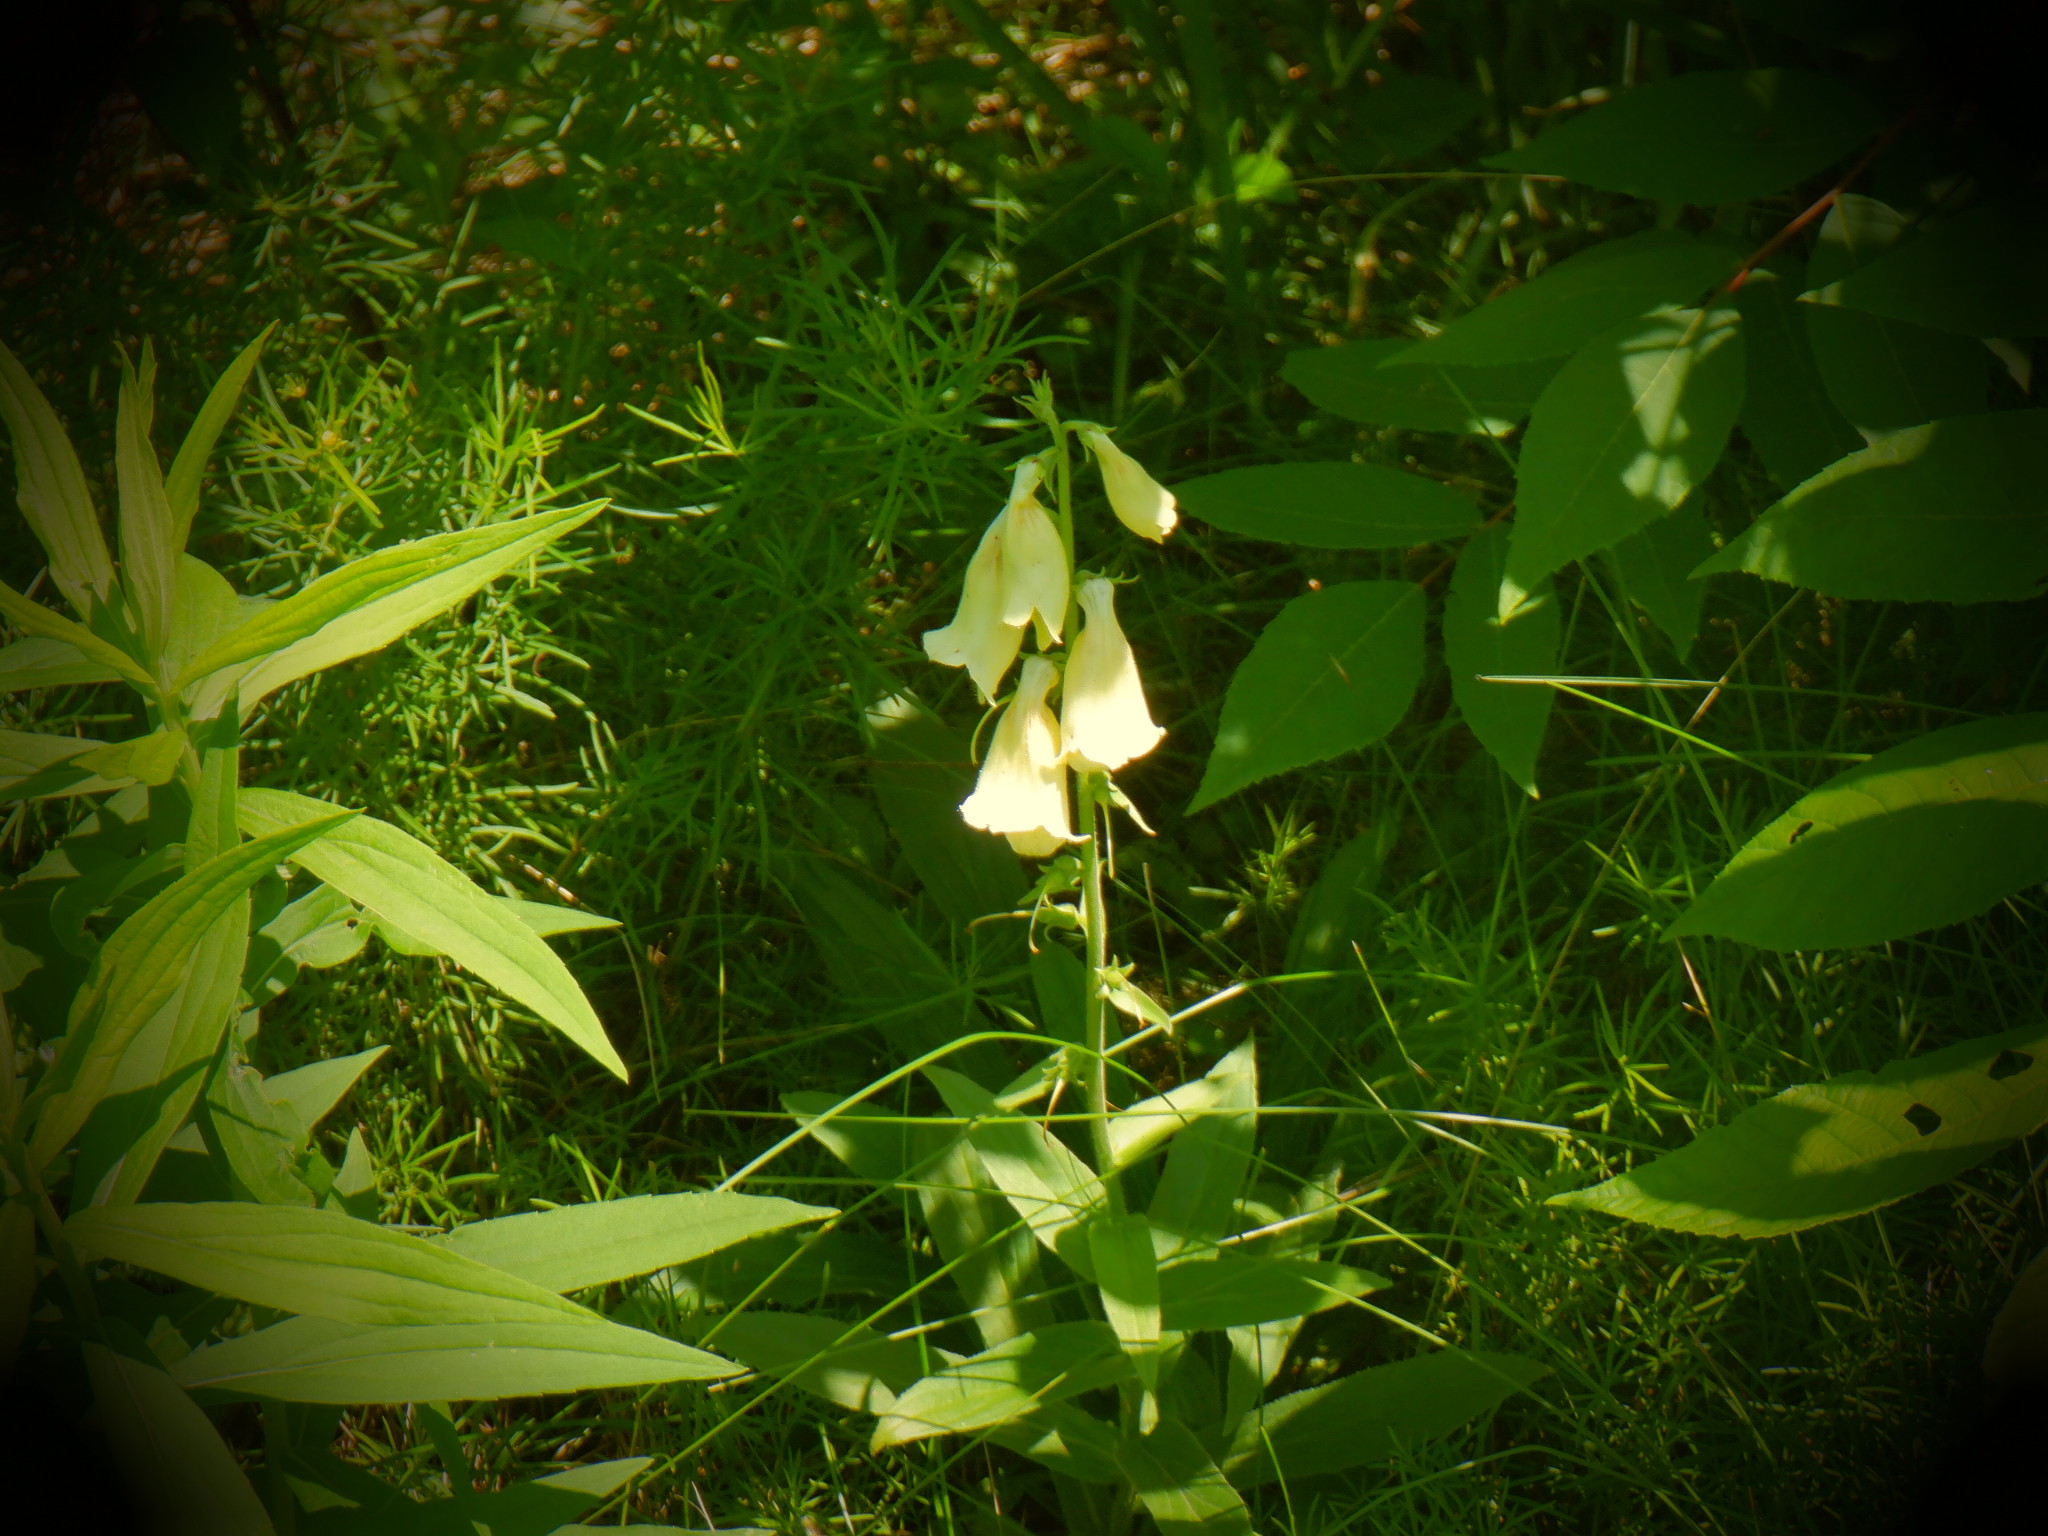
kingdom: Plantae
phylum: Tracheophyta
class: Magnoliopsida
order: Lamiales
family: Plantaginaceae
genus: Digitalis
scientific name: Digitalis grandiflora
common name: Yellow foxglove
